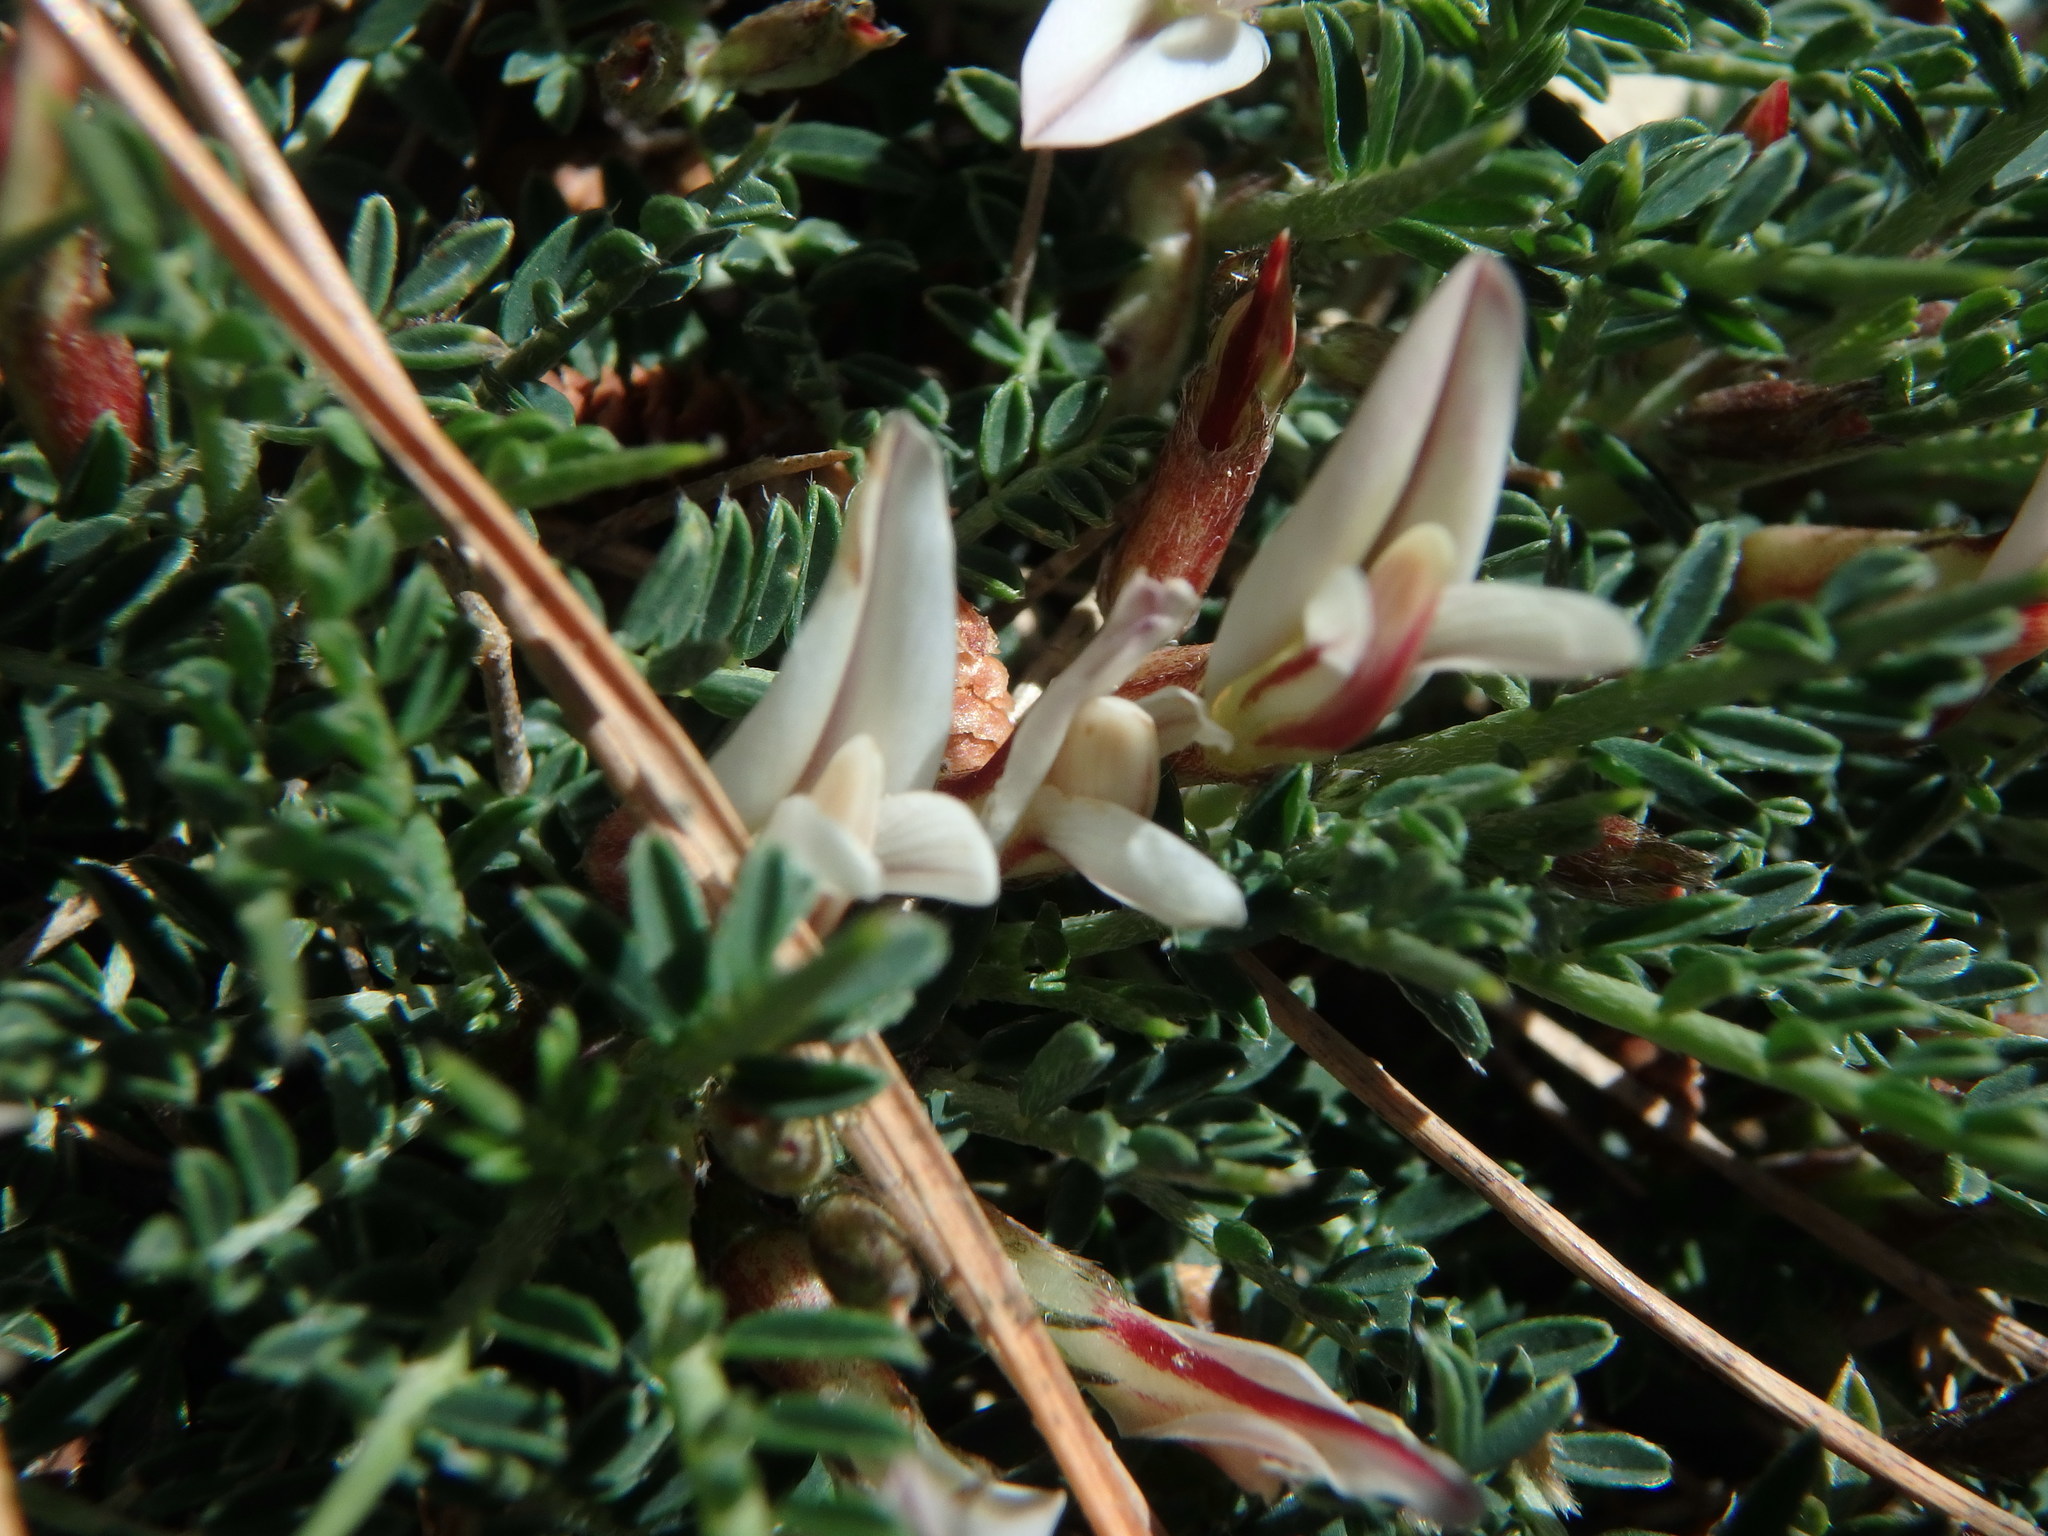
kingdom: Plantae
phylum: Tracheophyta
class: Magnoliopsida
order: Fabales
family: Fabaceae
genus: Astragalus
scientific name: Astragalus balearicus
